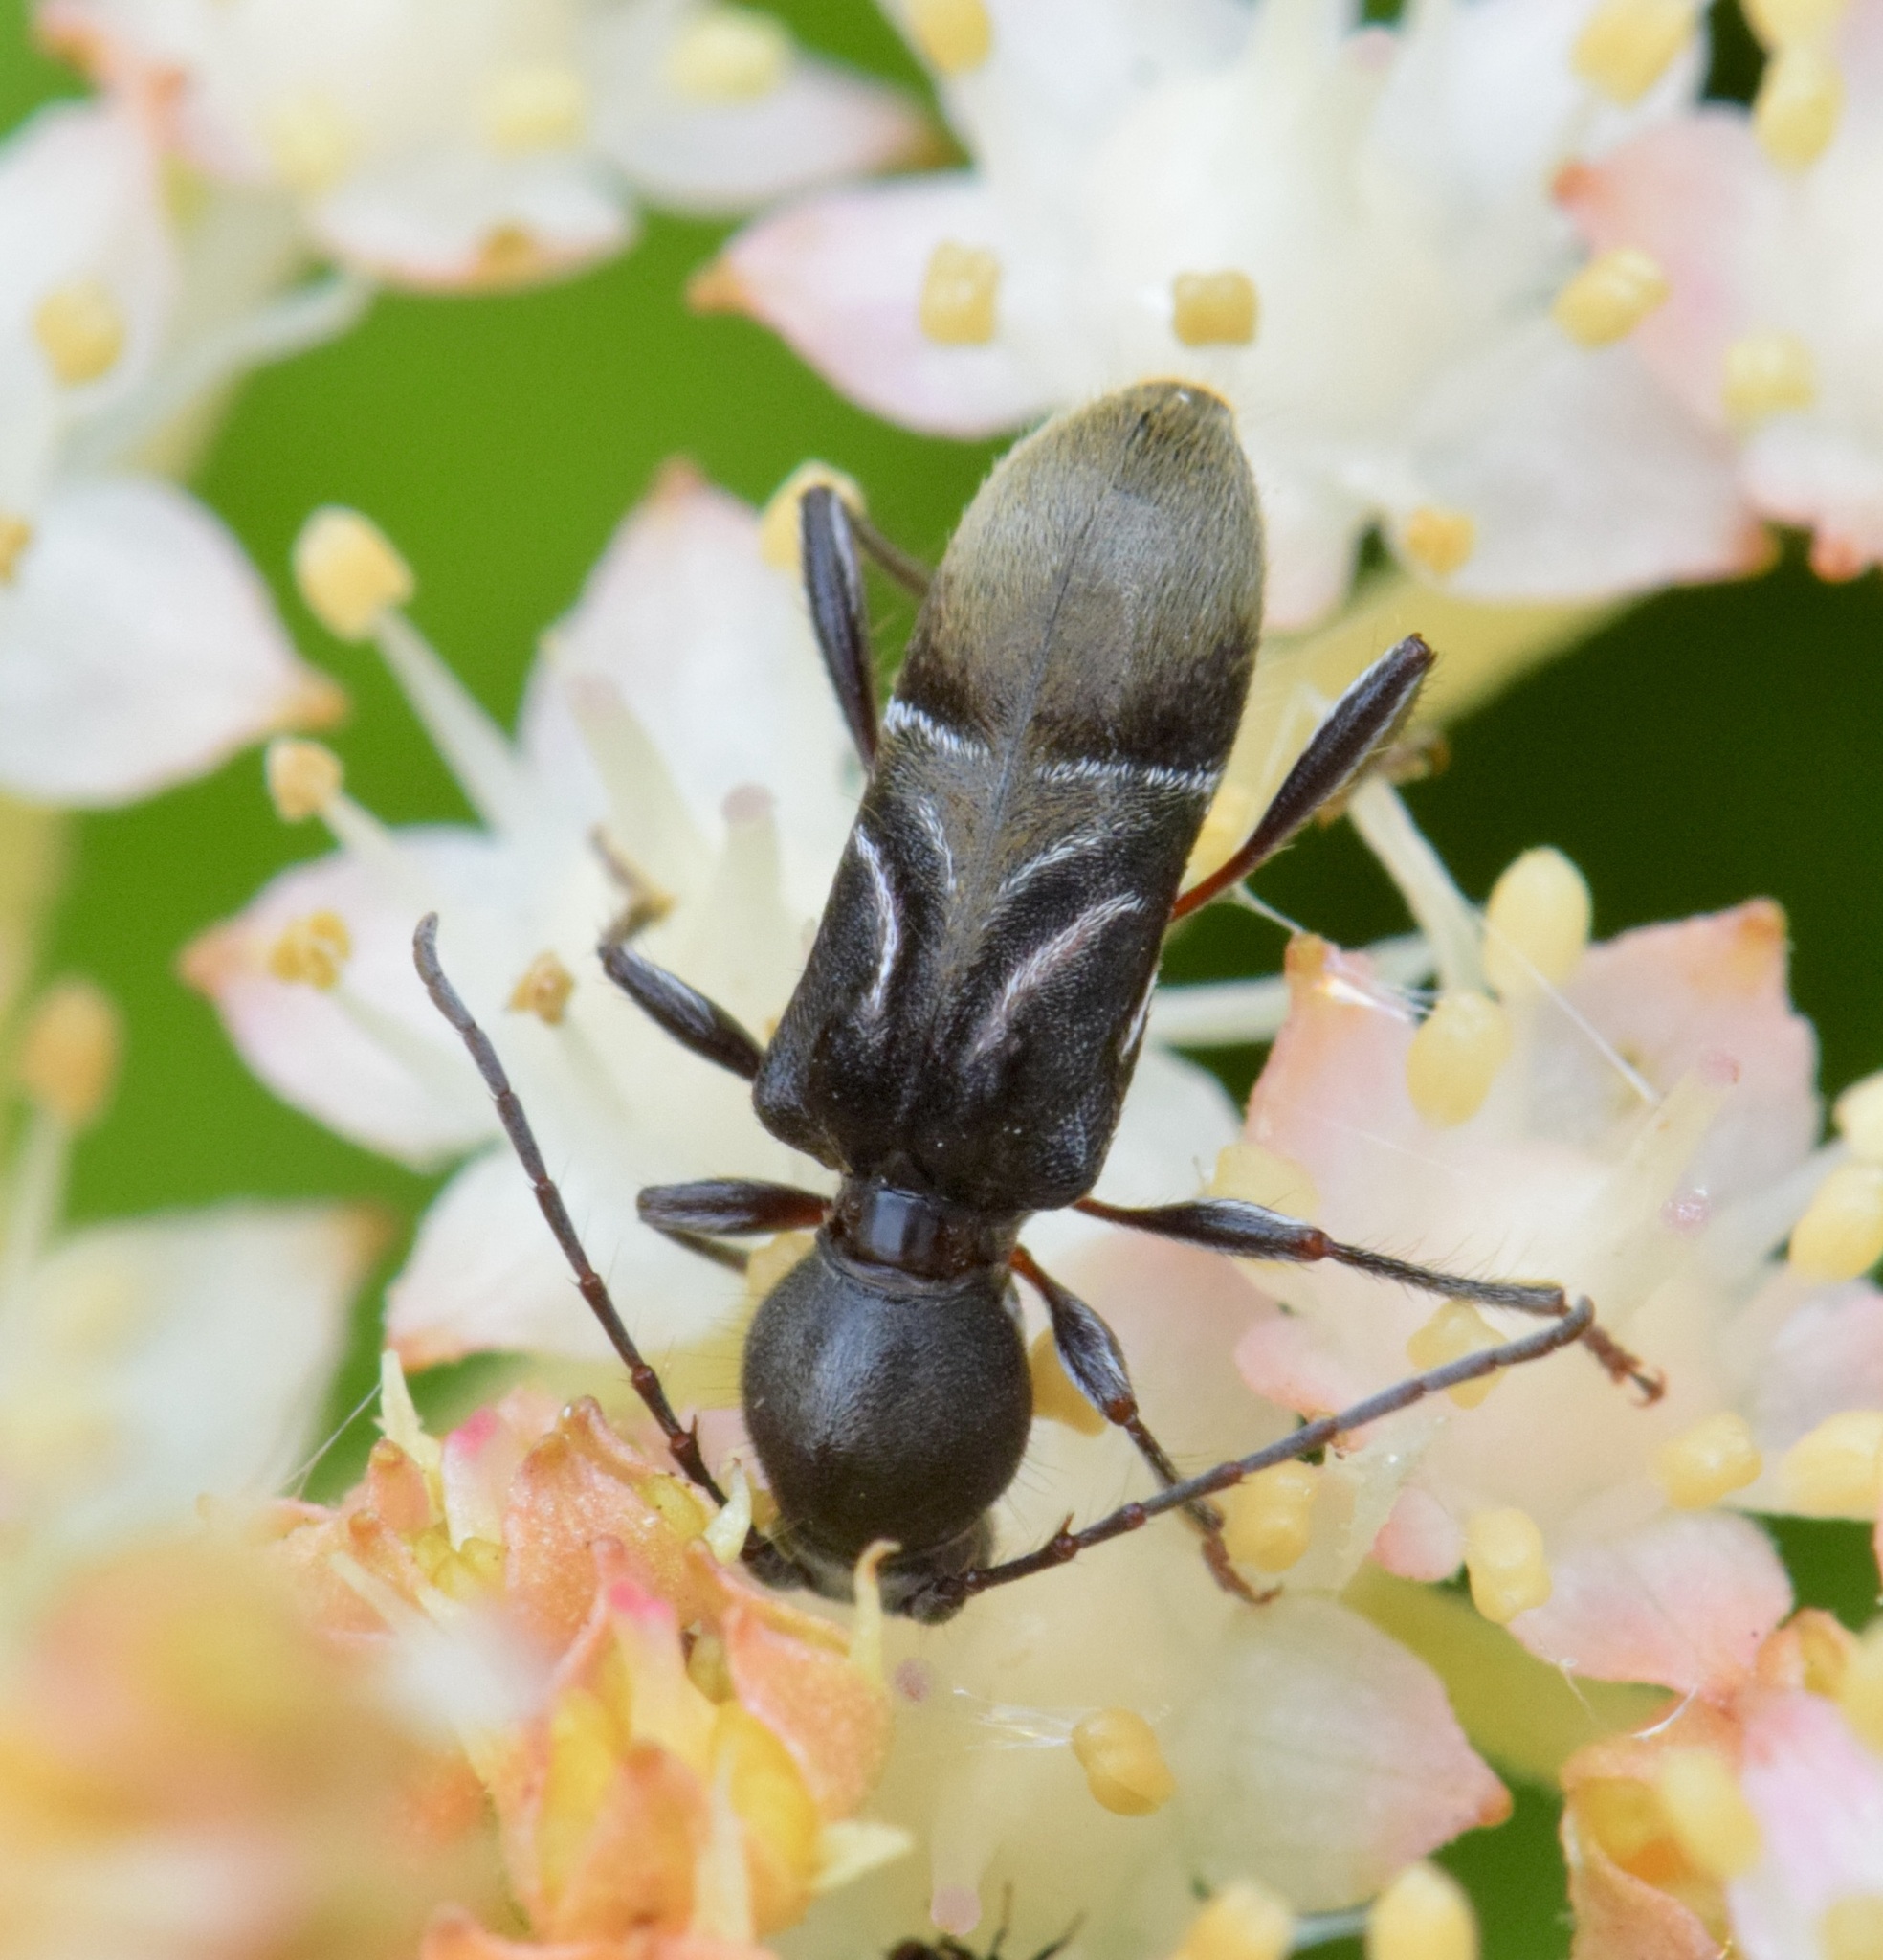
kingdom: Animalia
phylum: Arthropoda
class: Insecta
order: Coleoptera
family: Cerambycidae
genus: Cyrtophorus
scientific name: Cyrtophorus verrucosus
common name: Ant-like longhorn beetle
